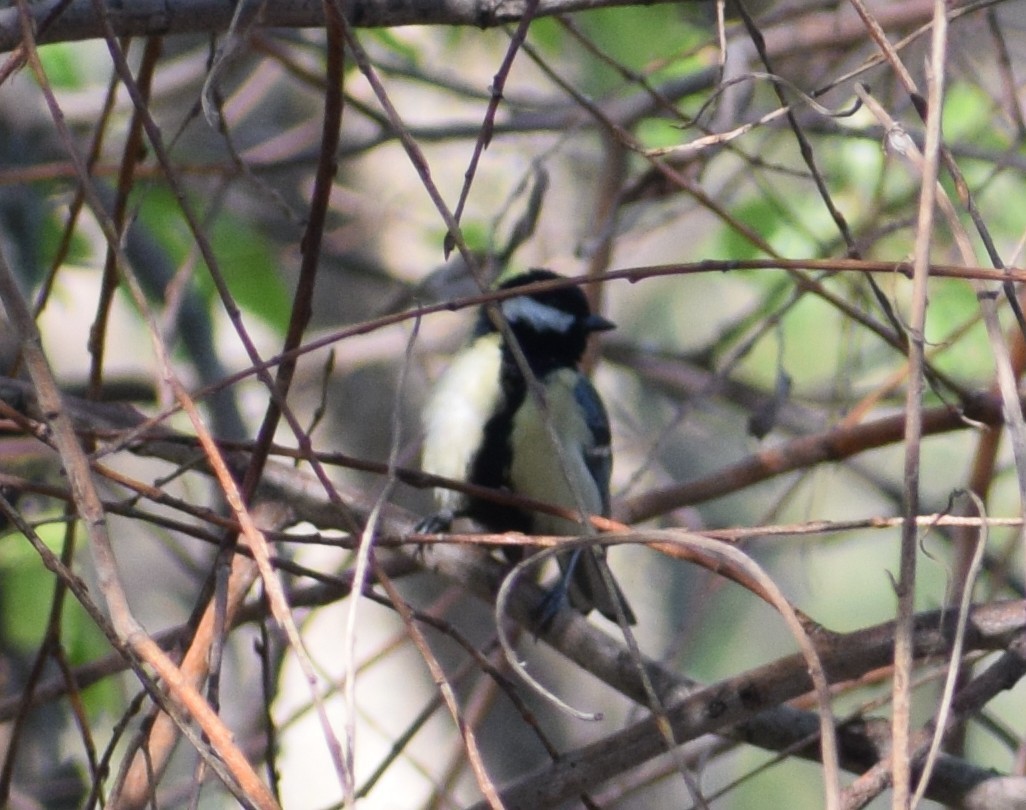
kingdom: Animalia
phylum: Chordata
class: Aves
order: Passeriformes
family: Paridae
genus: Parus
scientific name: Parus major
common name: Great tit
